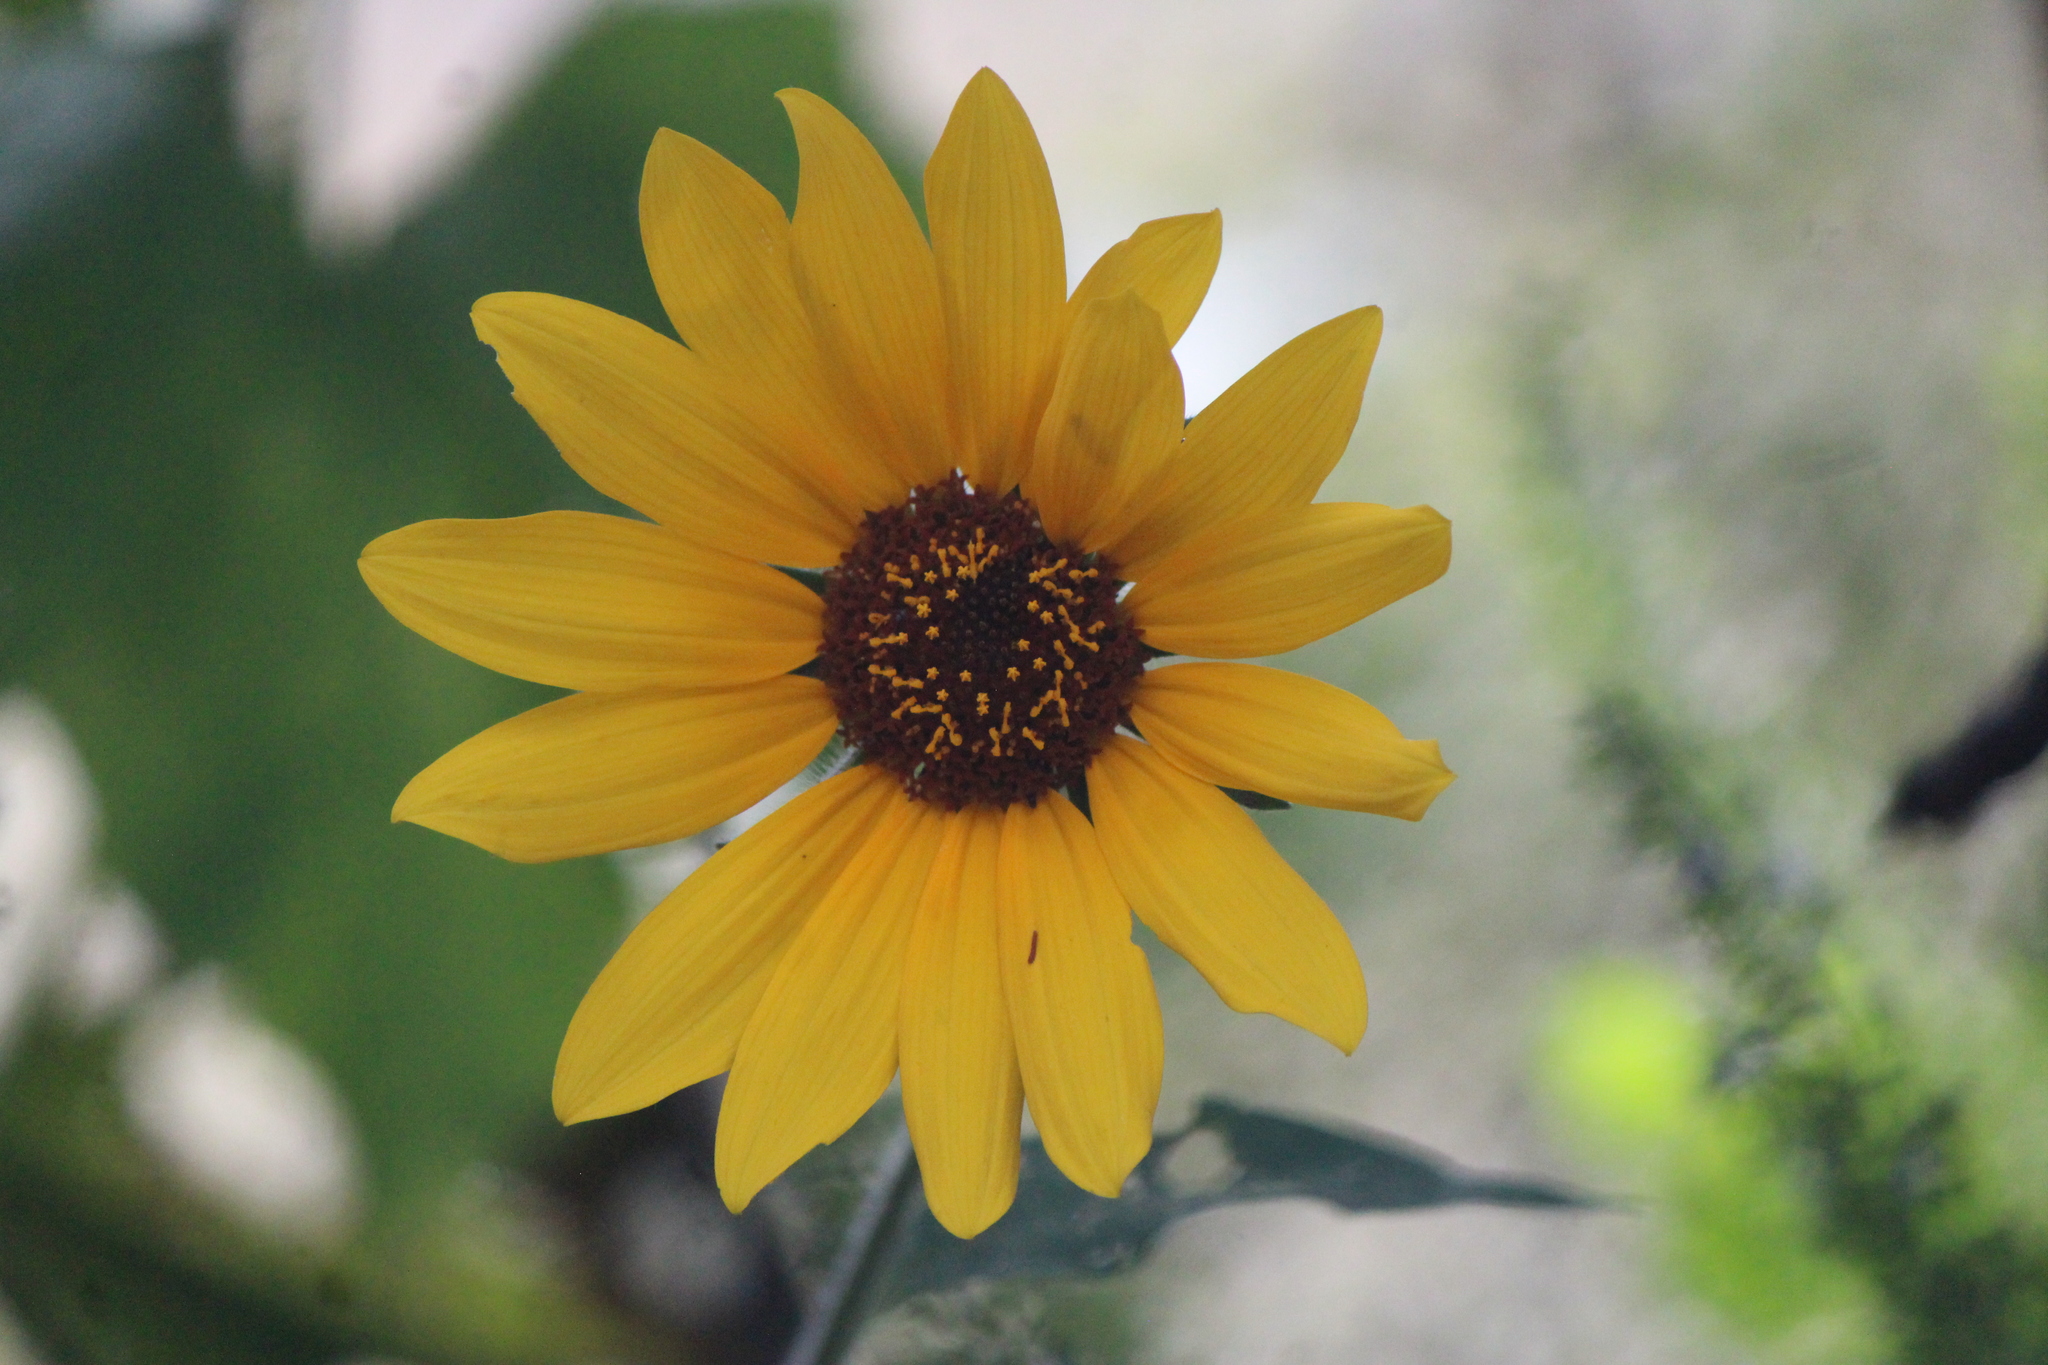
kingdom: Plantae
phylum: Tracheophyta
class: Magnoliopsida
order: Asterales
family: Asteraceae
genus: Tithonia
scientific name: Tithonia tubaeformis
